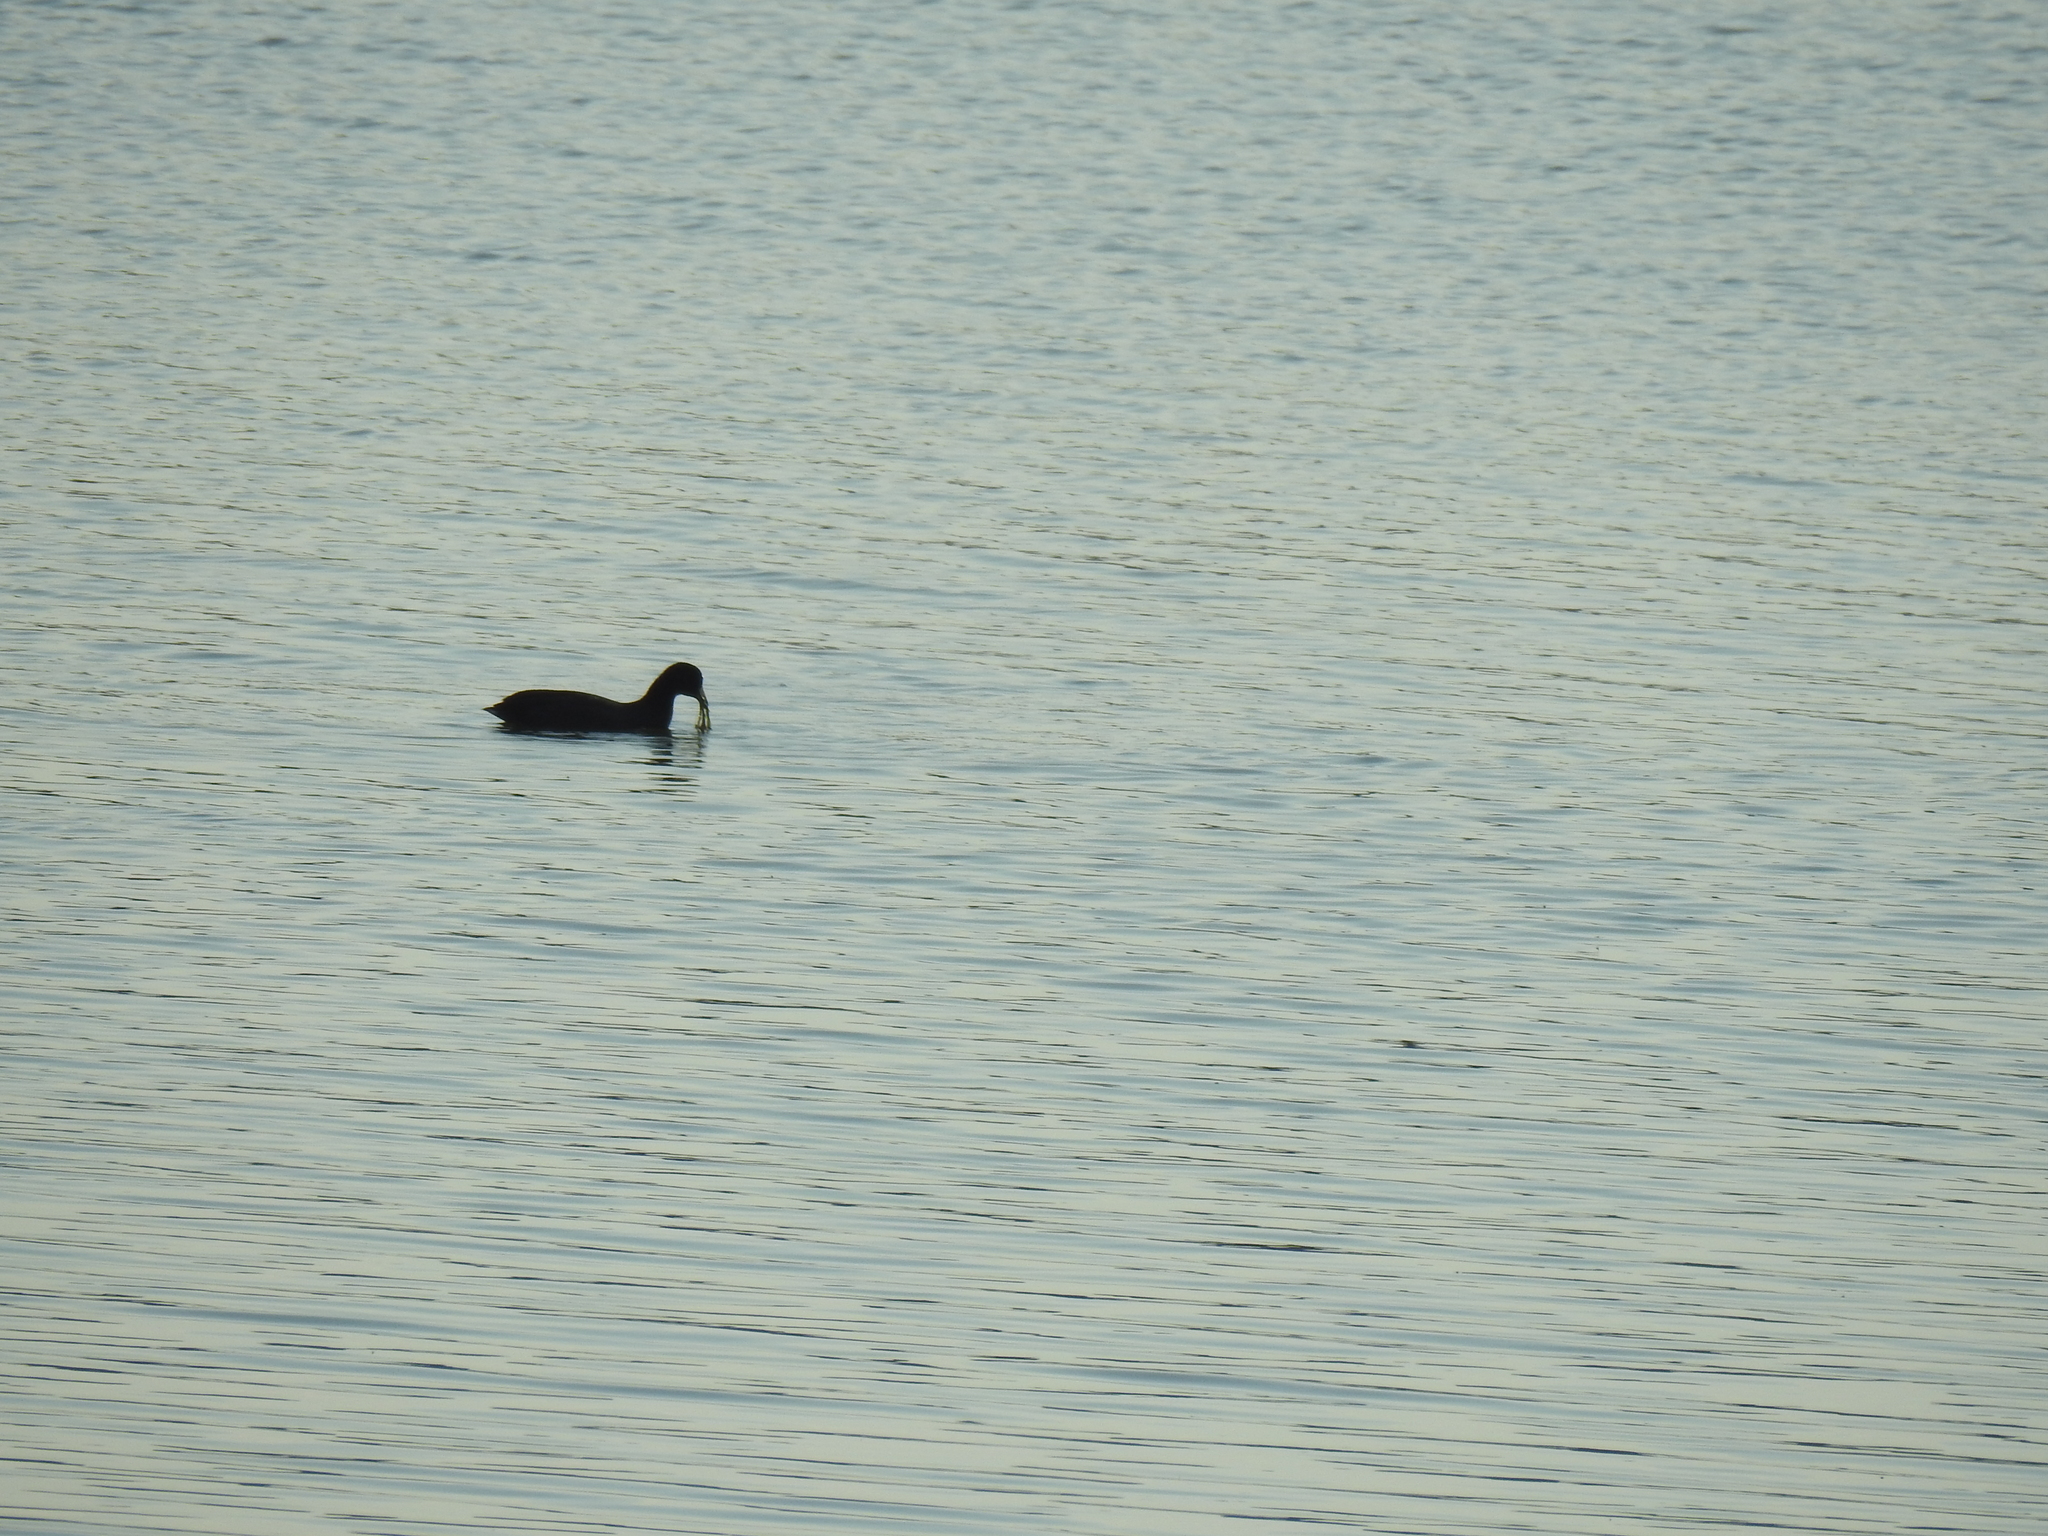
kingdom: Animalia
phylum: Chordata
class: Aves
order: Gruiformes
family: Rallidae
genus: Fulica
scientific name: Fulica americana
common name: American coot
